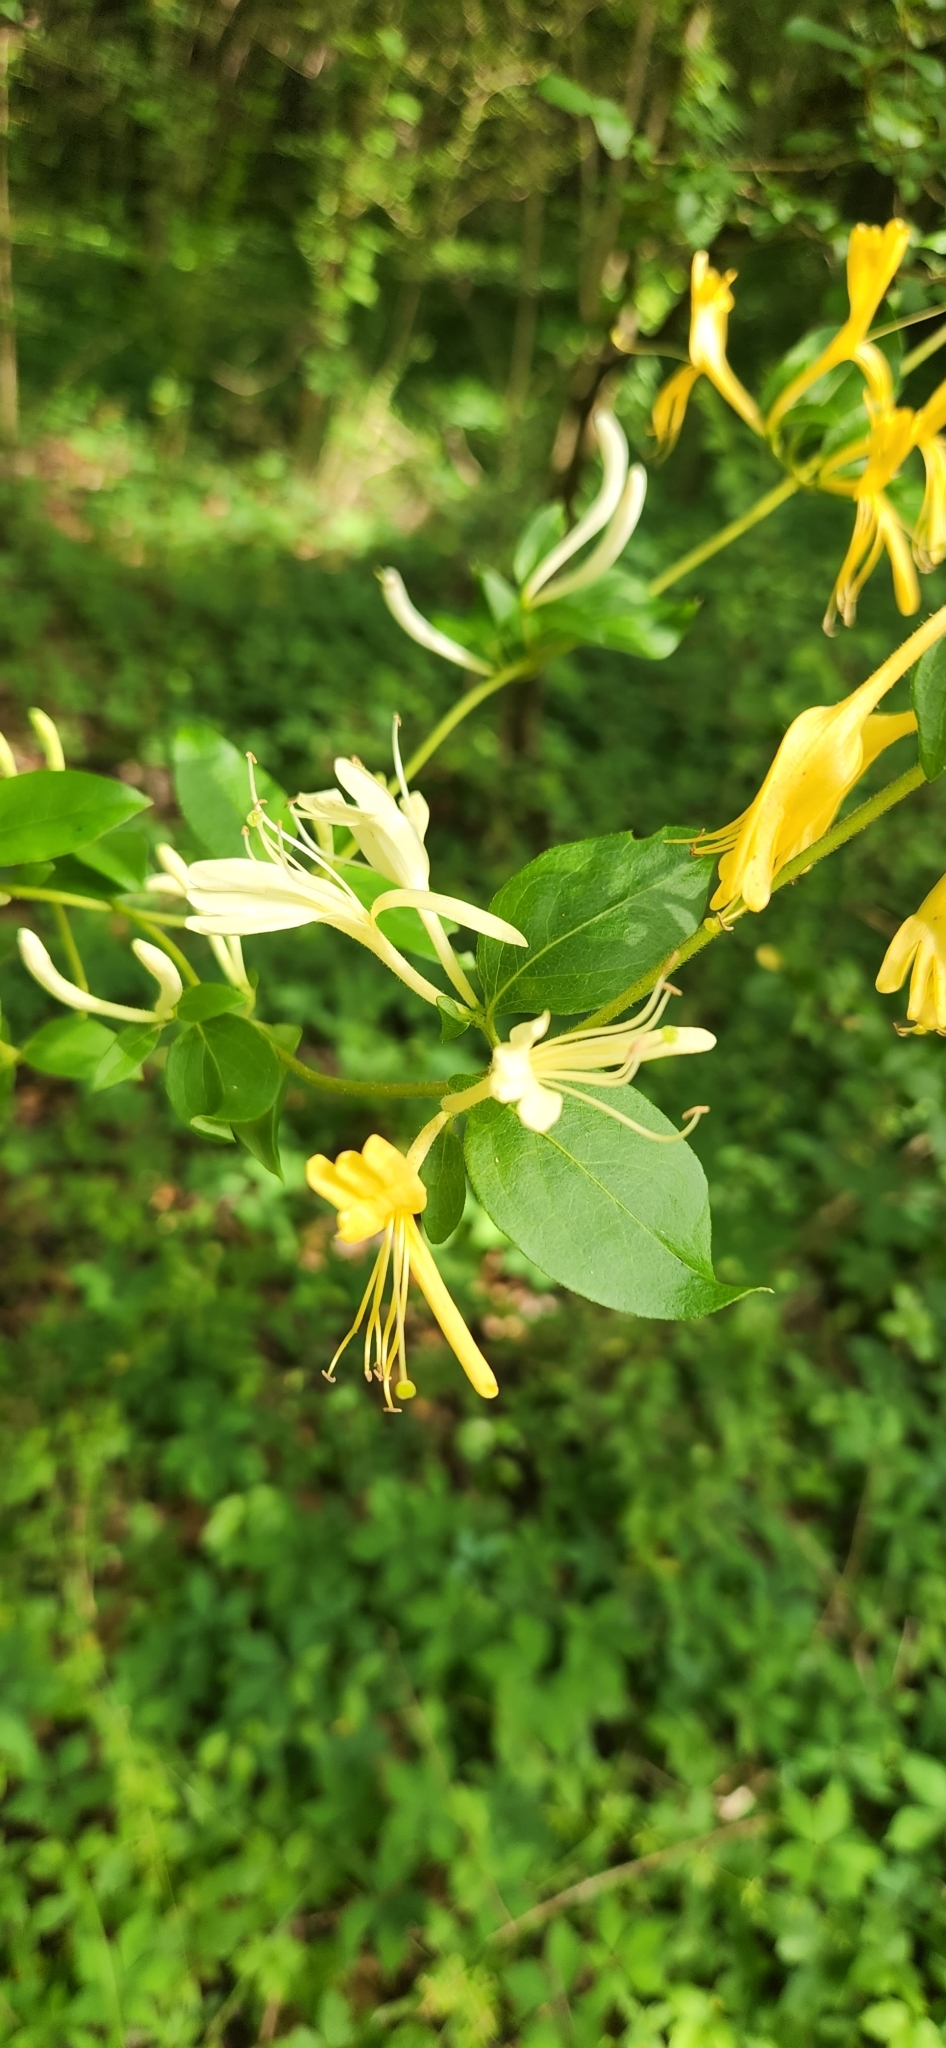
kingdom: Plantae
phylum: Tracheophyta
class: Magnoliopsida
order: Dipsacales
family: Caprifoliaceae
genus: Lonicera
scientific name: Lonicera japonica
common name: Japanese honeysuckle
